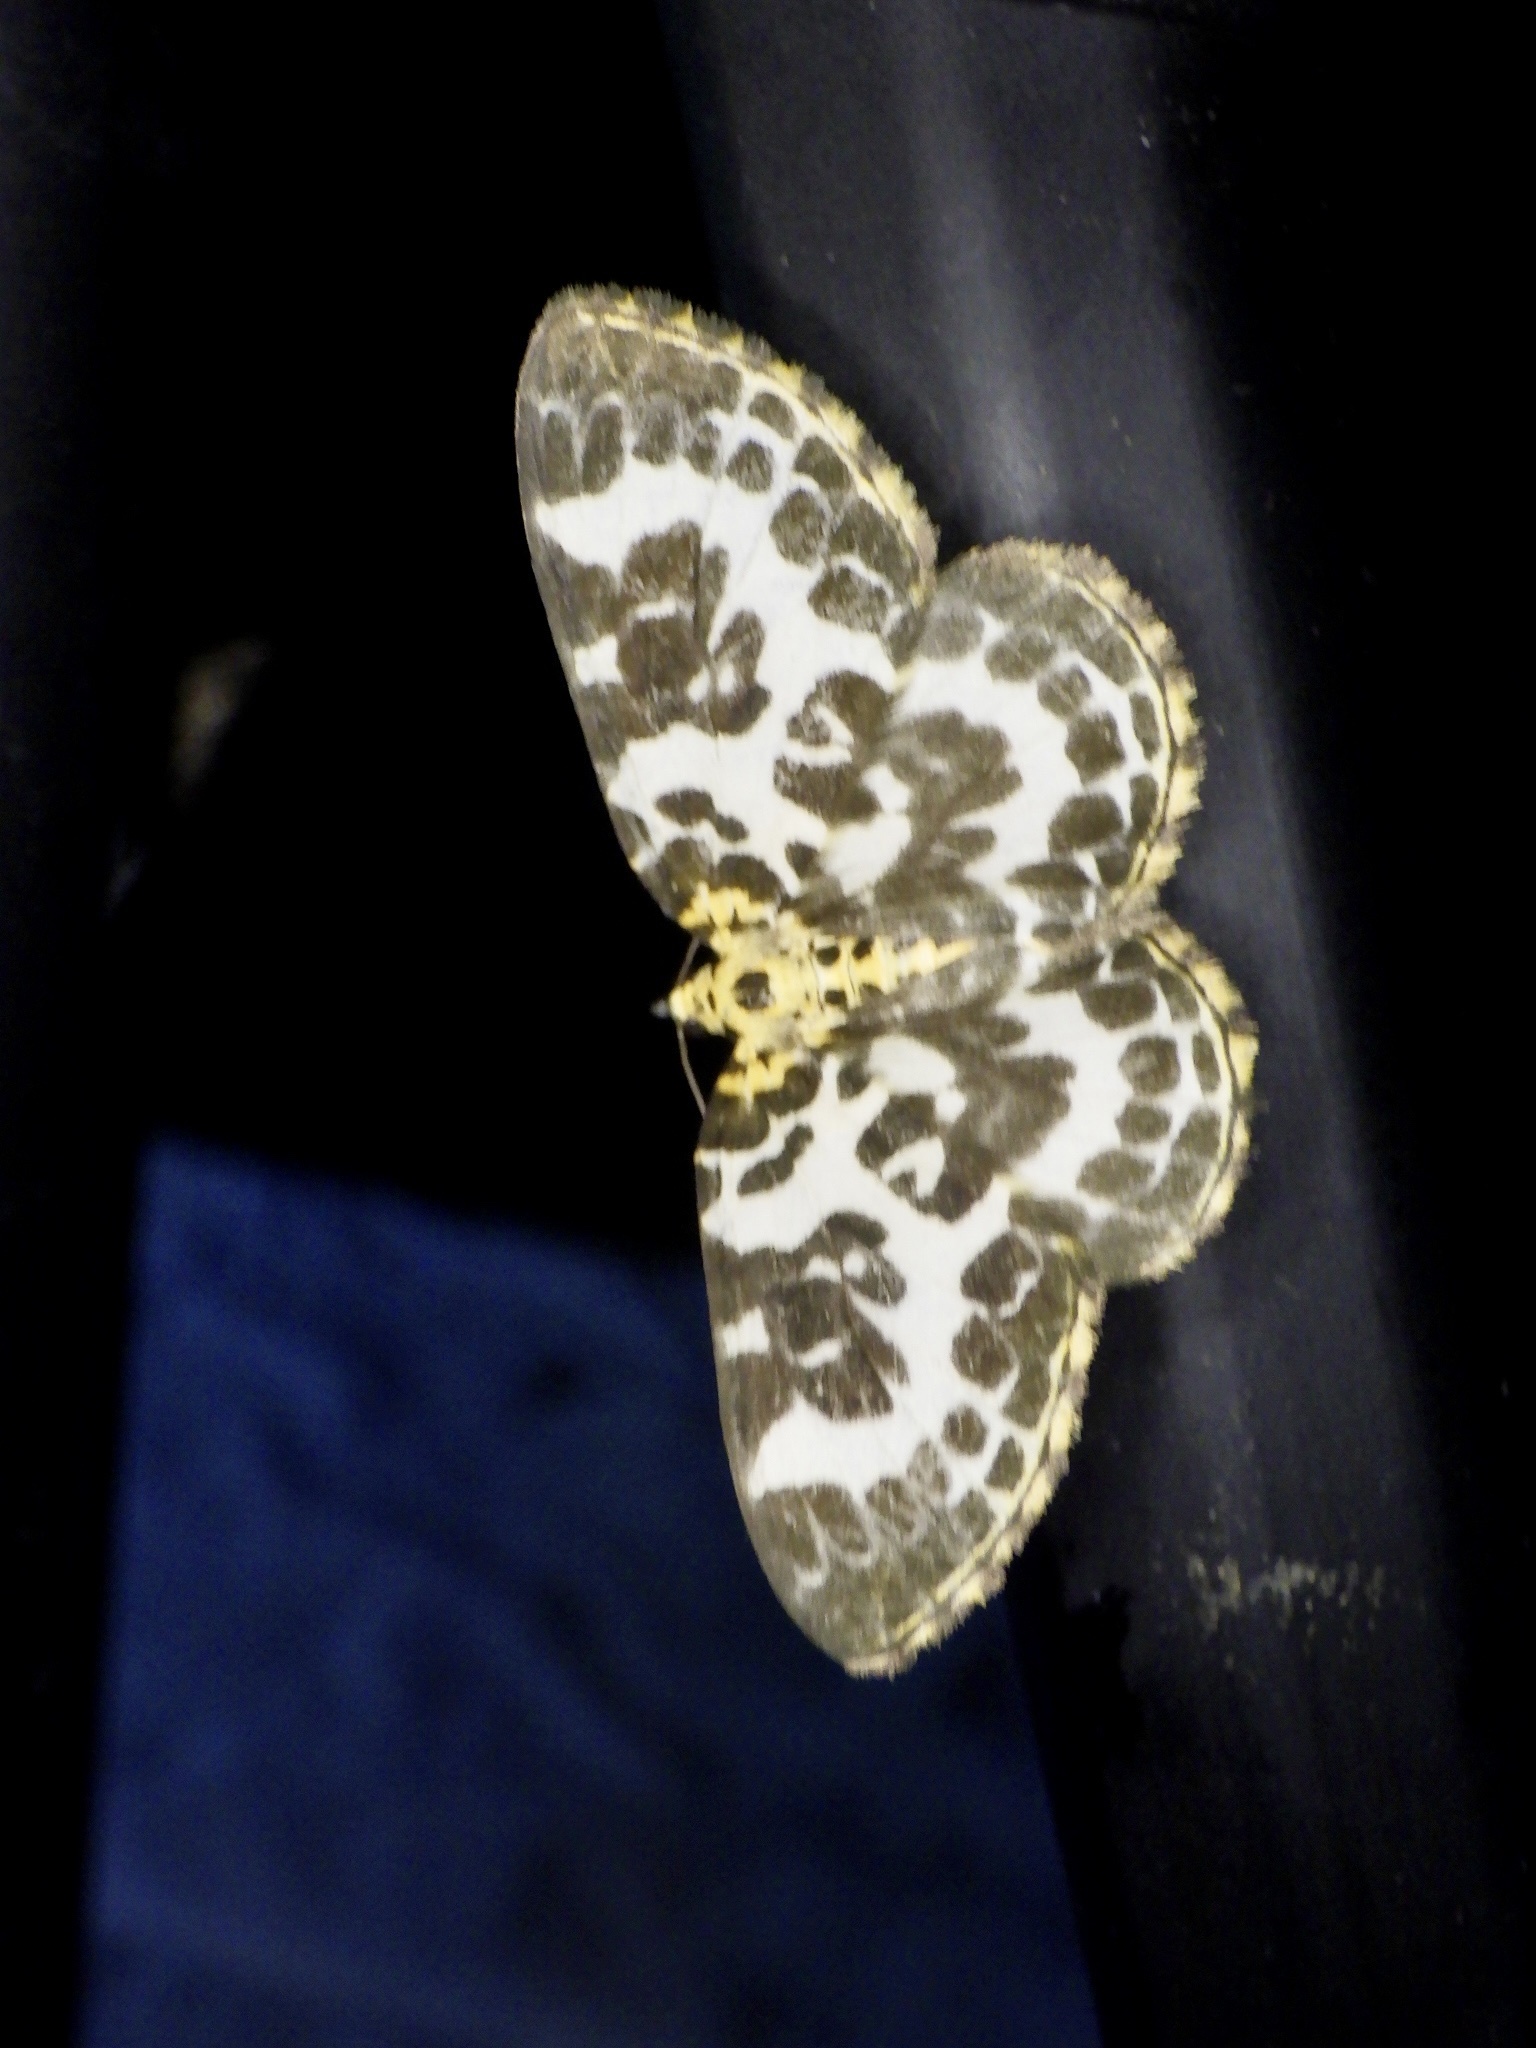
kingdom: Animalia
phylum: Arthropoda
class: Insecta
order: Lepidoptera
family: Geometridae
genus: Gandaritis
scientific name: Gandaritis
